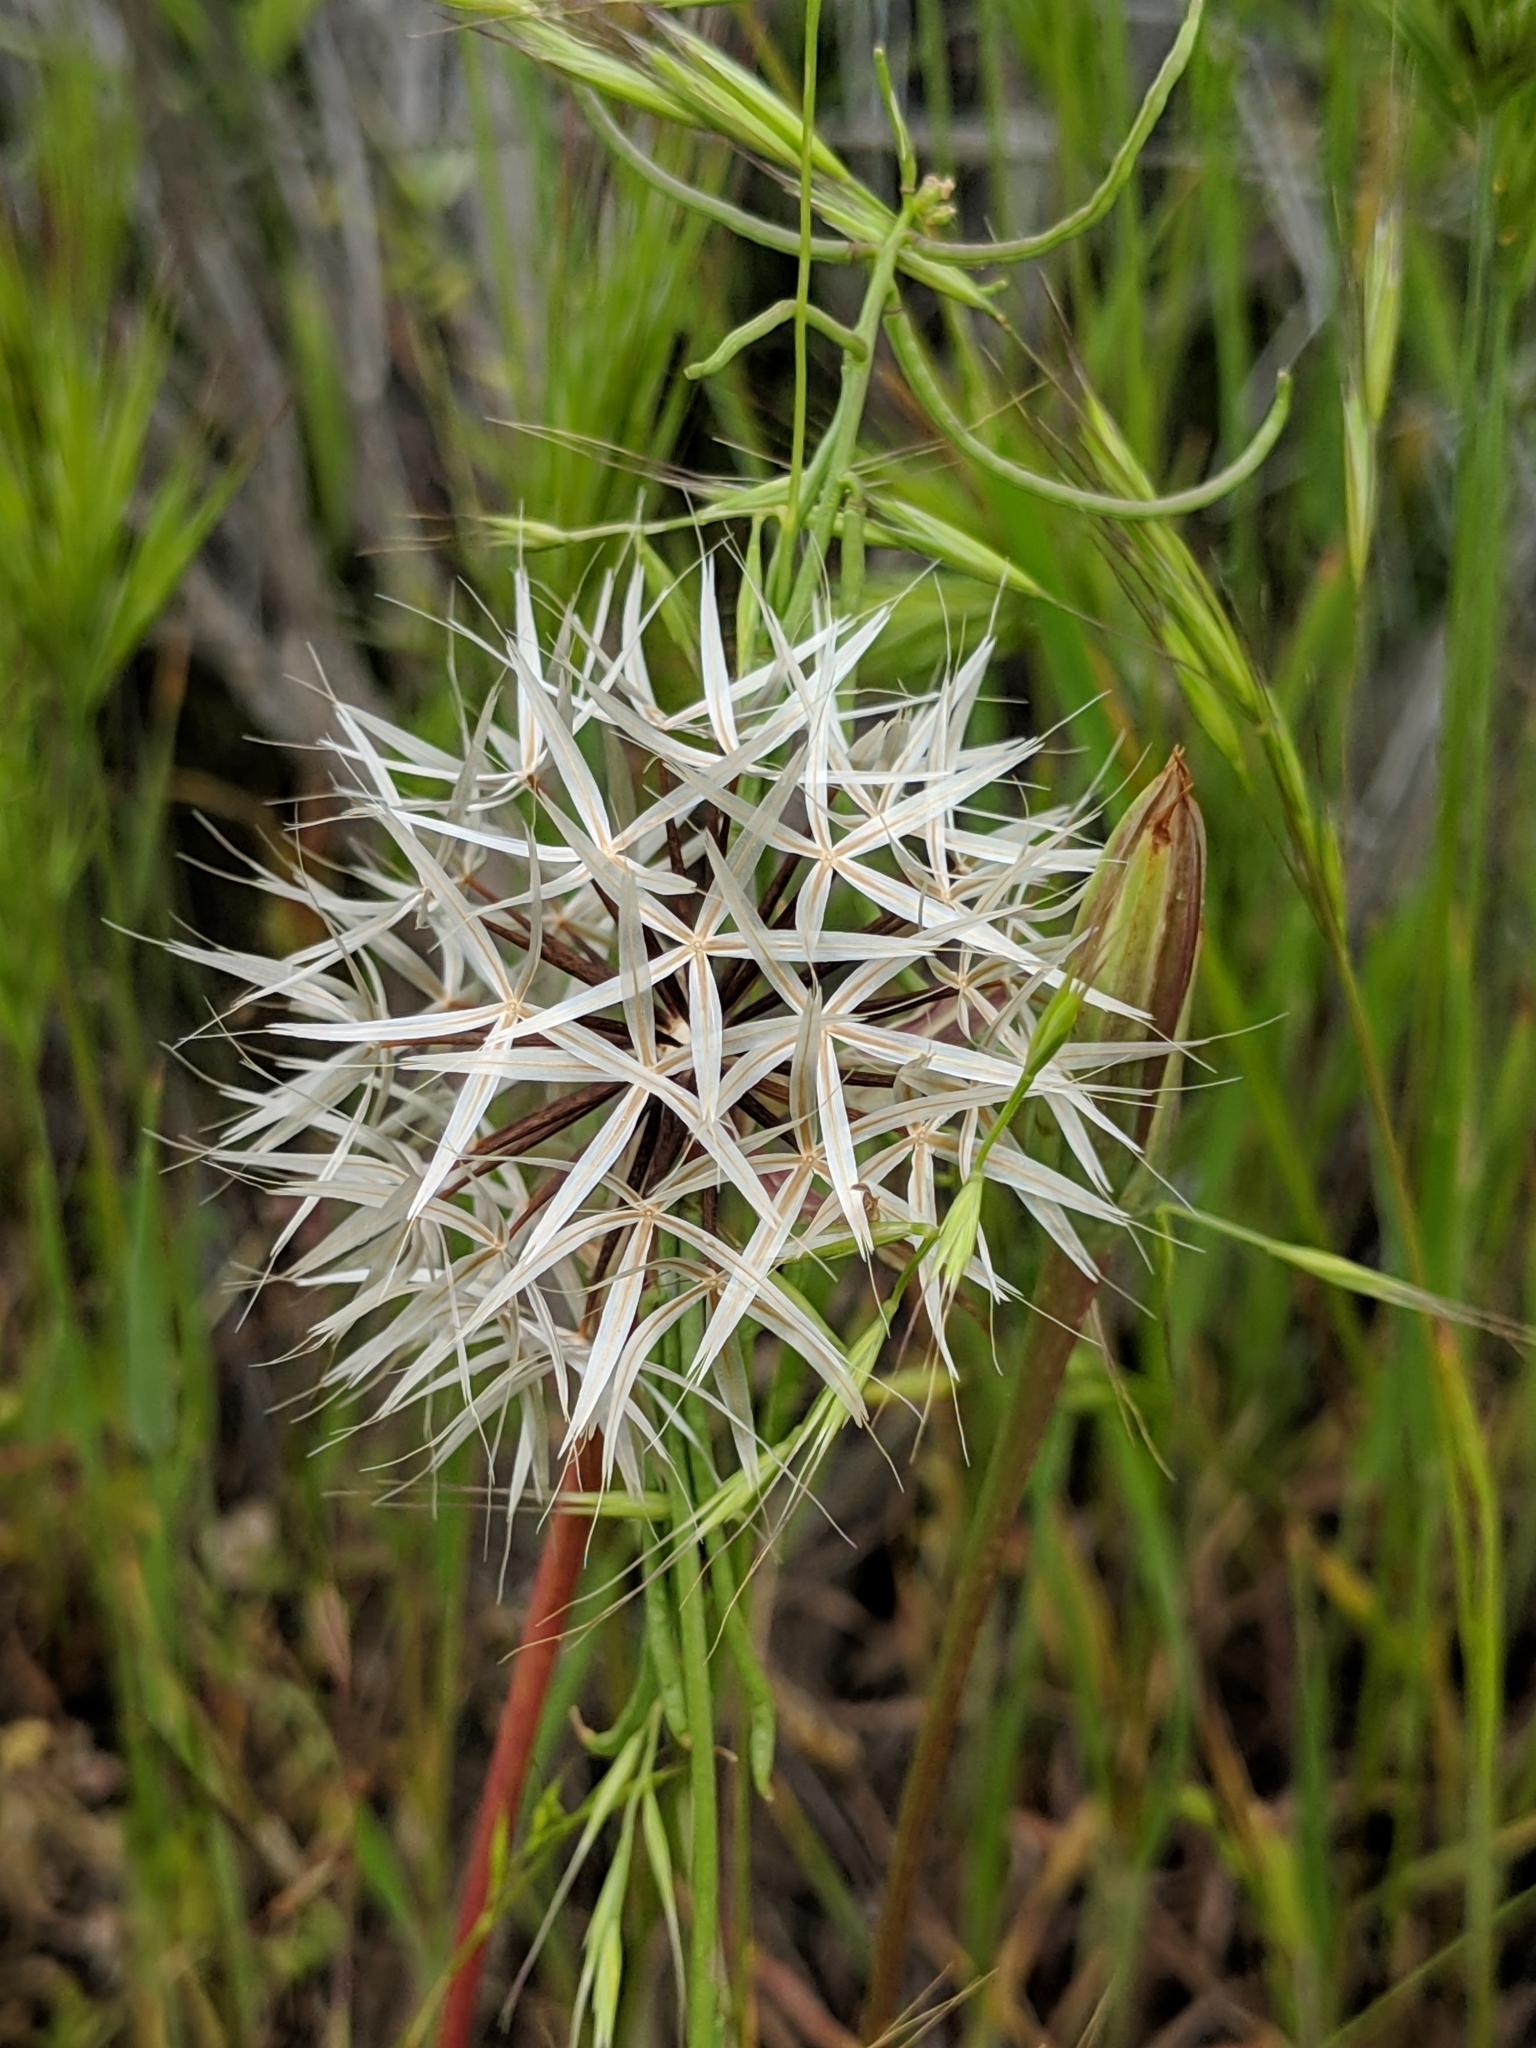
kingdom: Plantae
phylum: Tracheophyta
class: Magnoliopsida
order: Asterales
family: Asteraceae
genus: Microseris
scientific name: Microseris lindleyi
